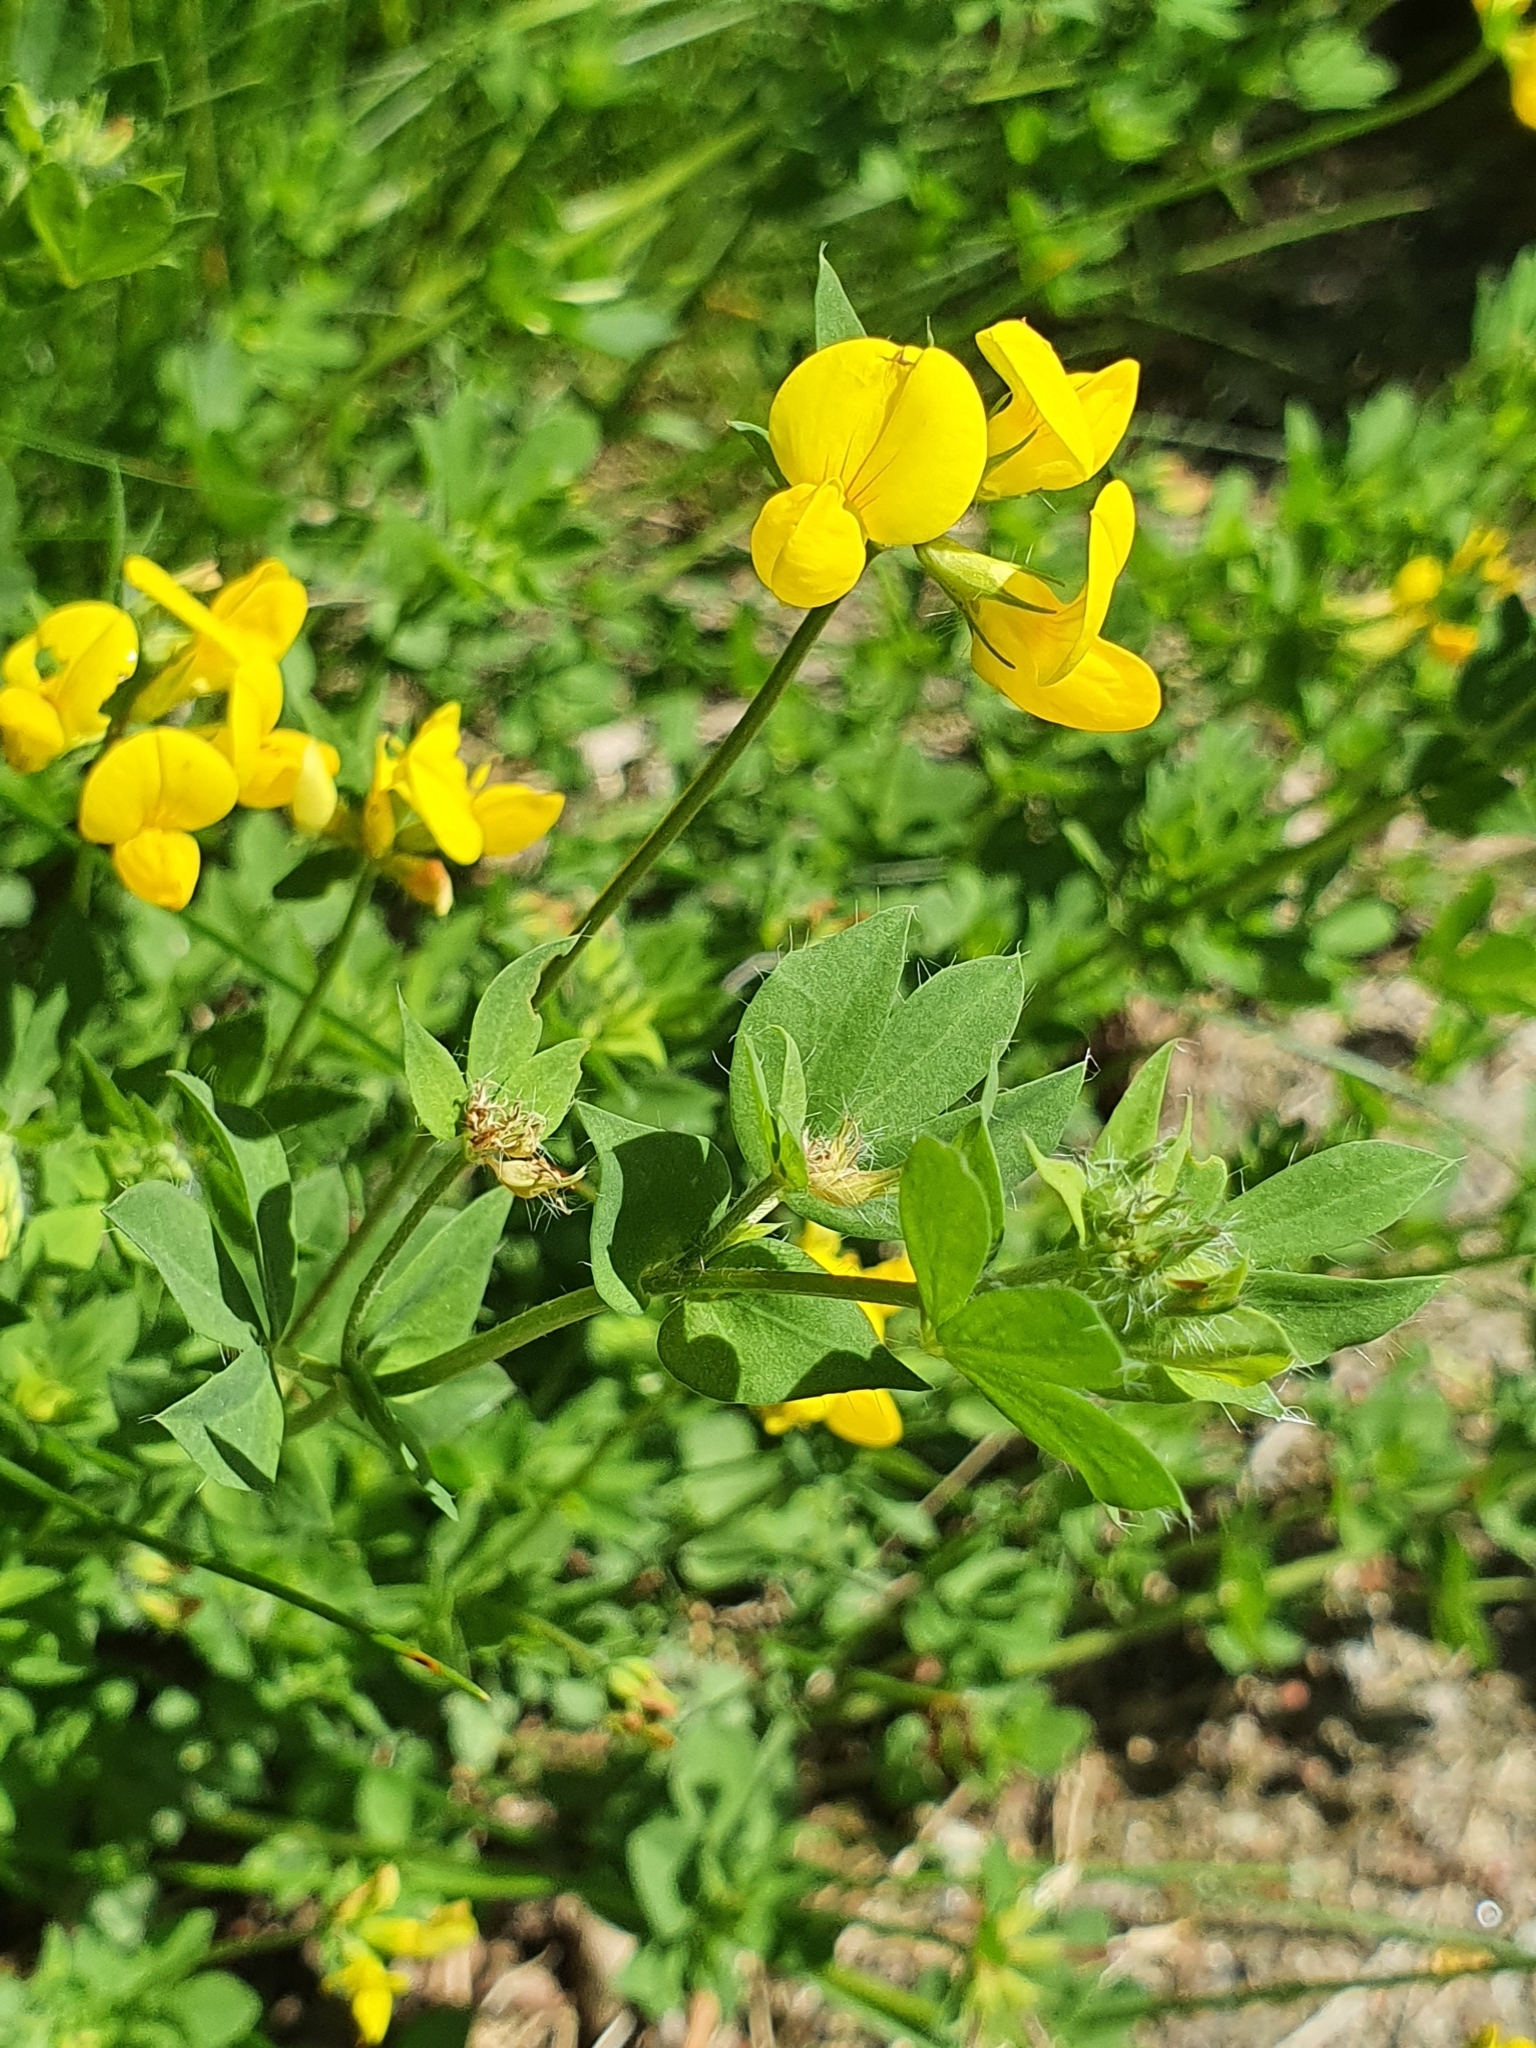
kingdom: Plantae
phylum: Tracheophyta
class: Magnoliopsida
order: Fabales
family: Fabaceae
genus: Lotus
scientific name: Lotus corniculatus
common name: Common bird's-foot-trefoil
